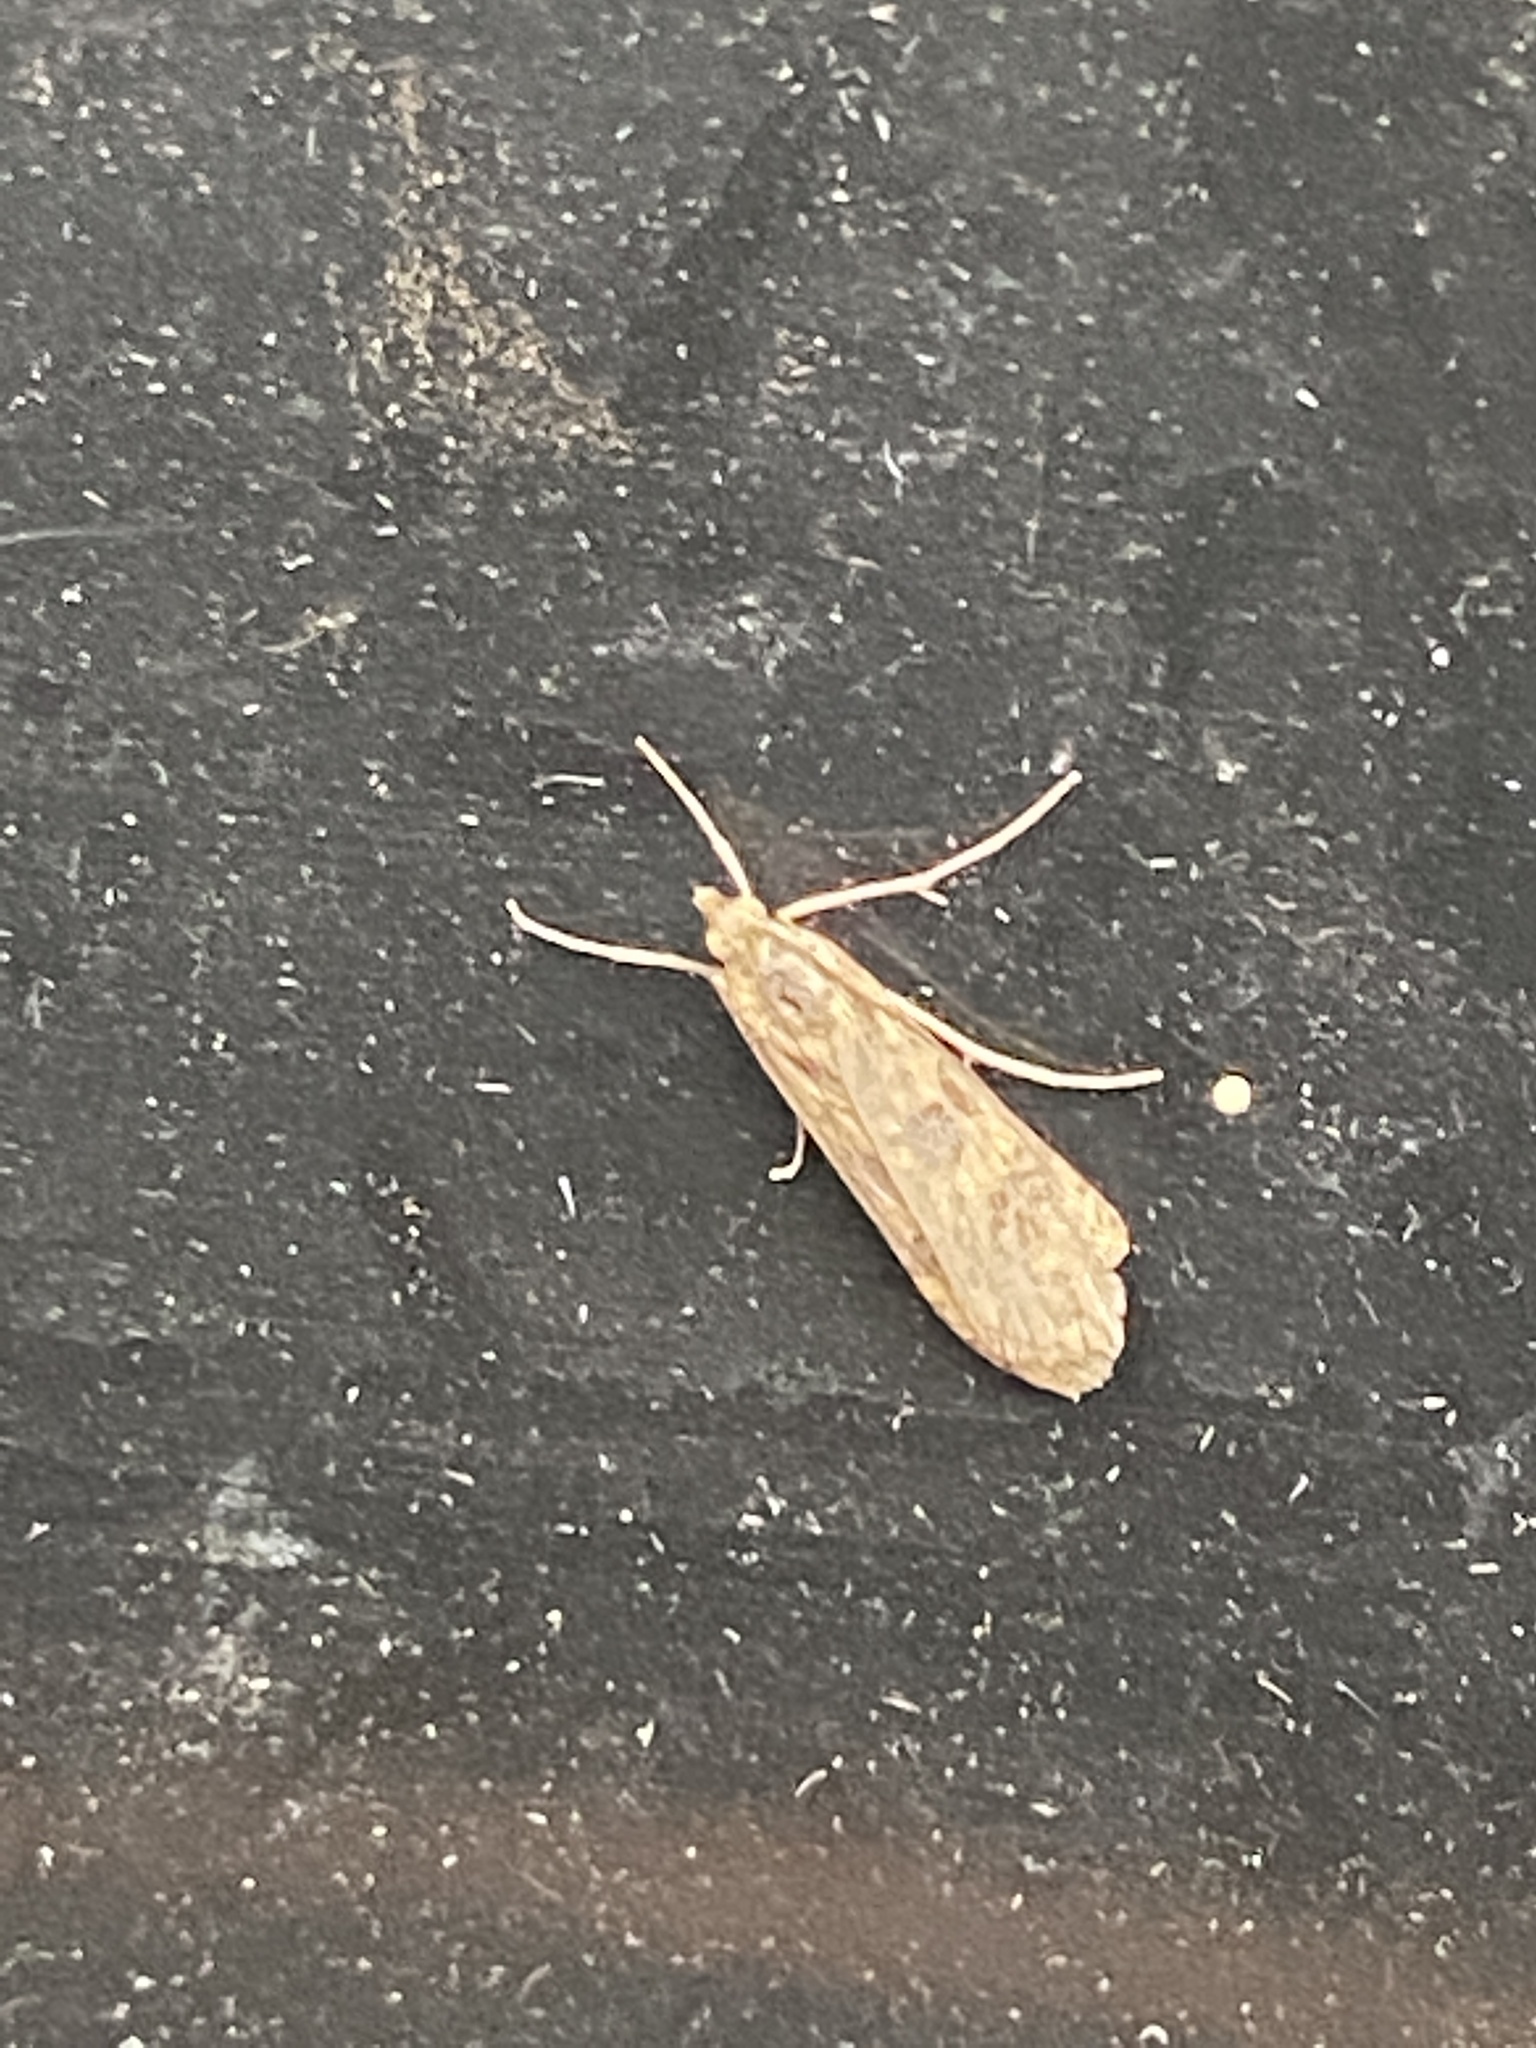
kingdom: Animalia
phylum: Arthropoda
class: Insecta
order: Lepidoptera
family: Crambidae
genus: Nomophila
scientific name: Nomophila noctuella
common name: Rush veneer
